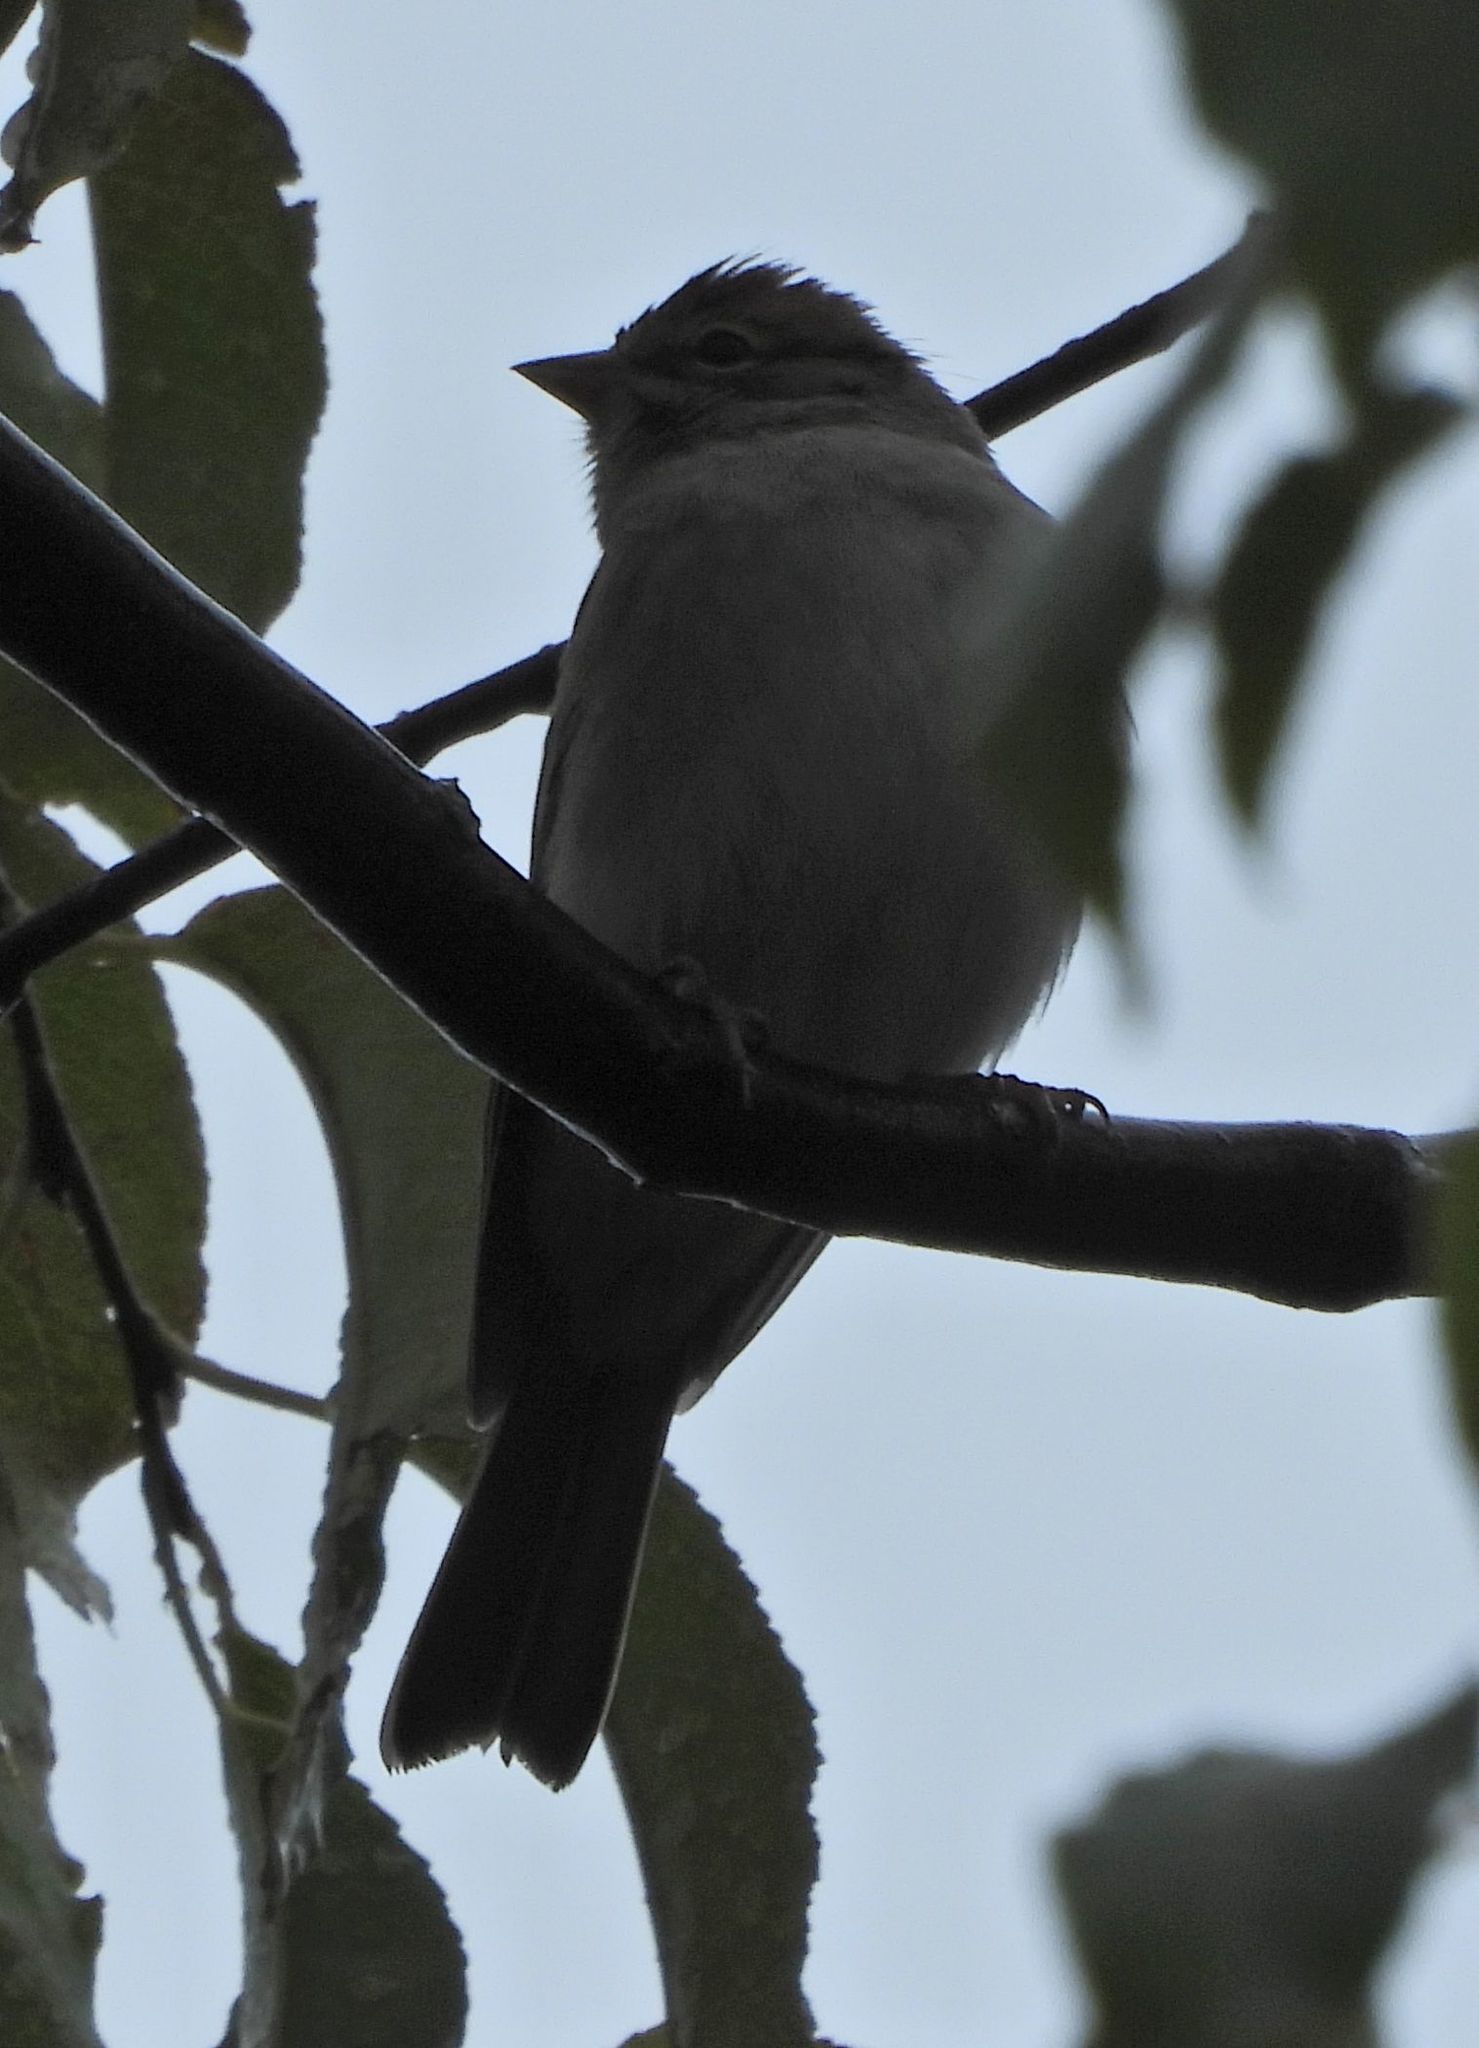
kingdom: Animalia
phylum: Chordata
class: Aves
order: Passeriformes
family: Passerellidae
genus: Spizella
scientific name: Spizella passerina
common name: Chipping sparrow
